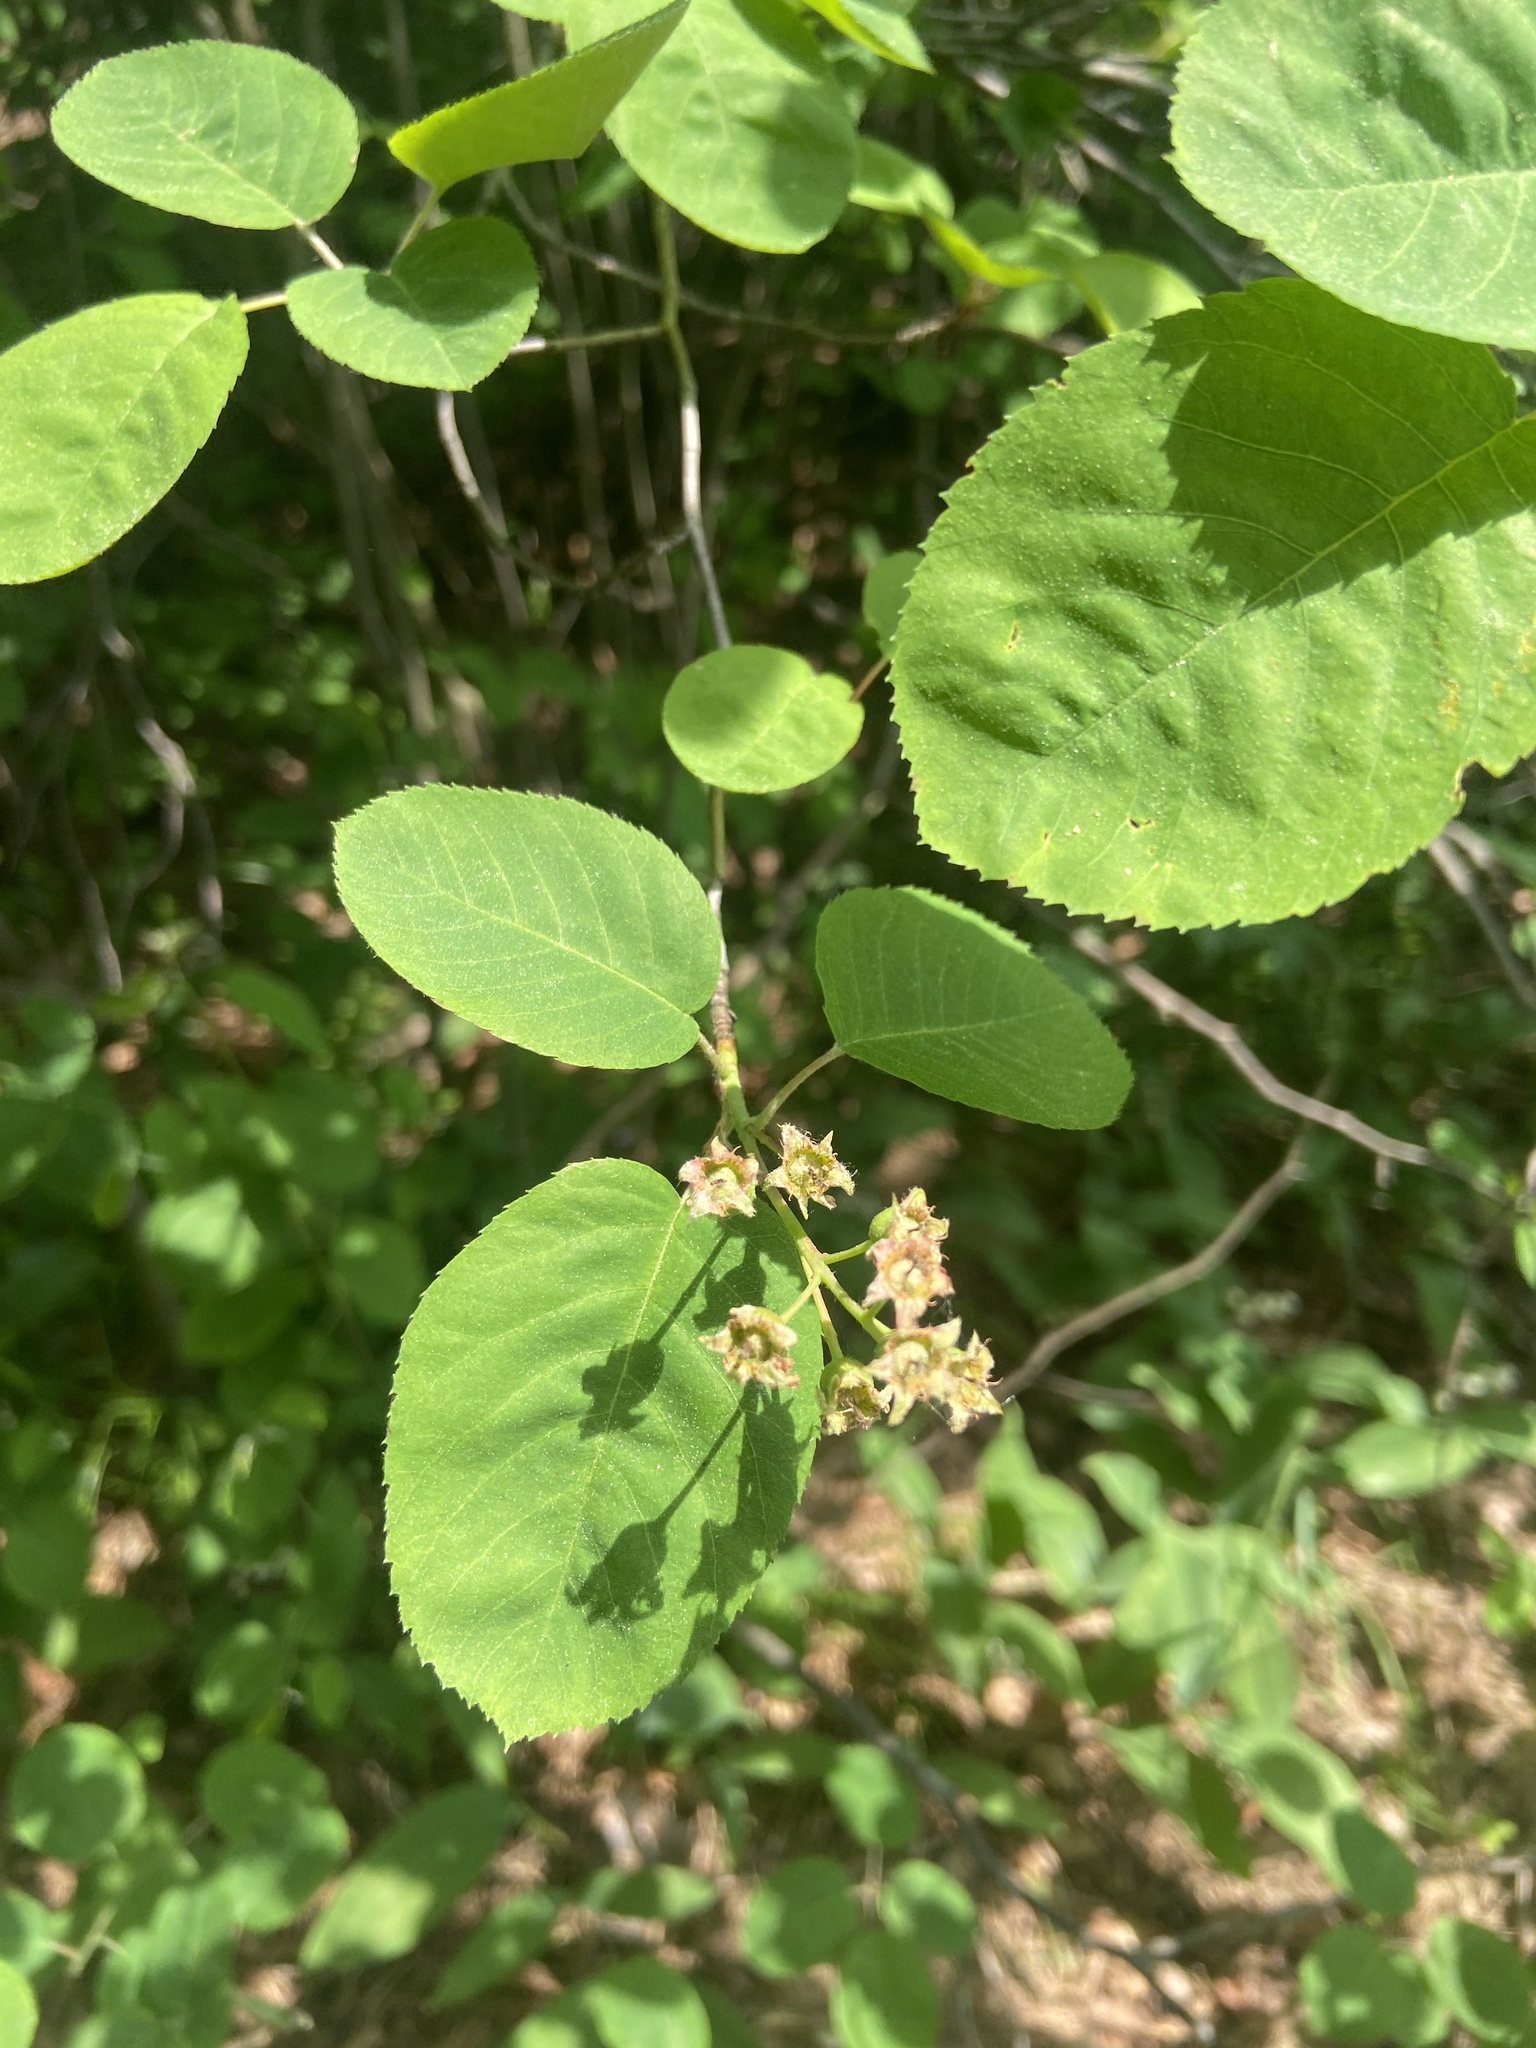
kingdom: Plantae
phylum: Tracheophyta
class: Magnoliopsida
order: Rosales
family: Rosaceae
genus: Amelanchier
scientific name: Amelanchier
